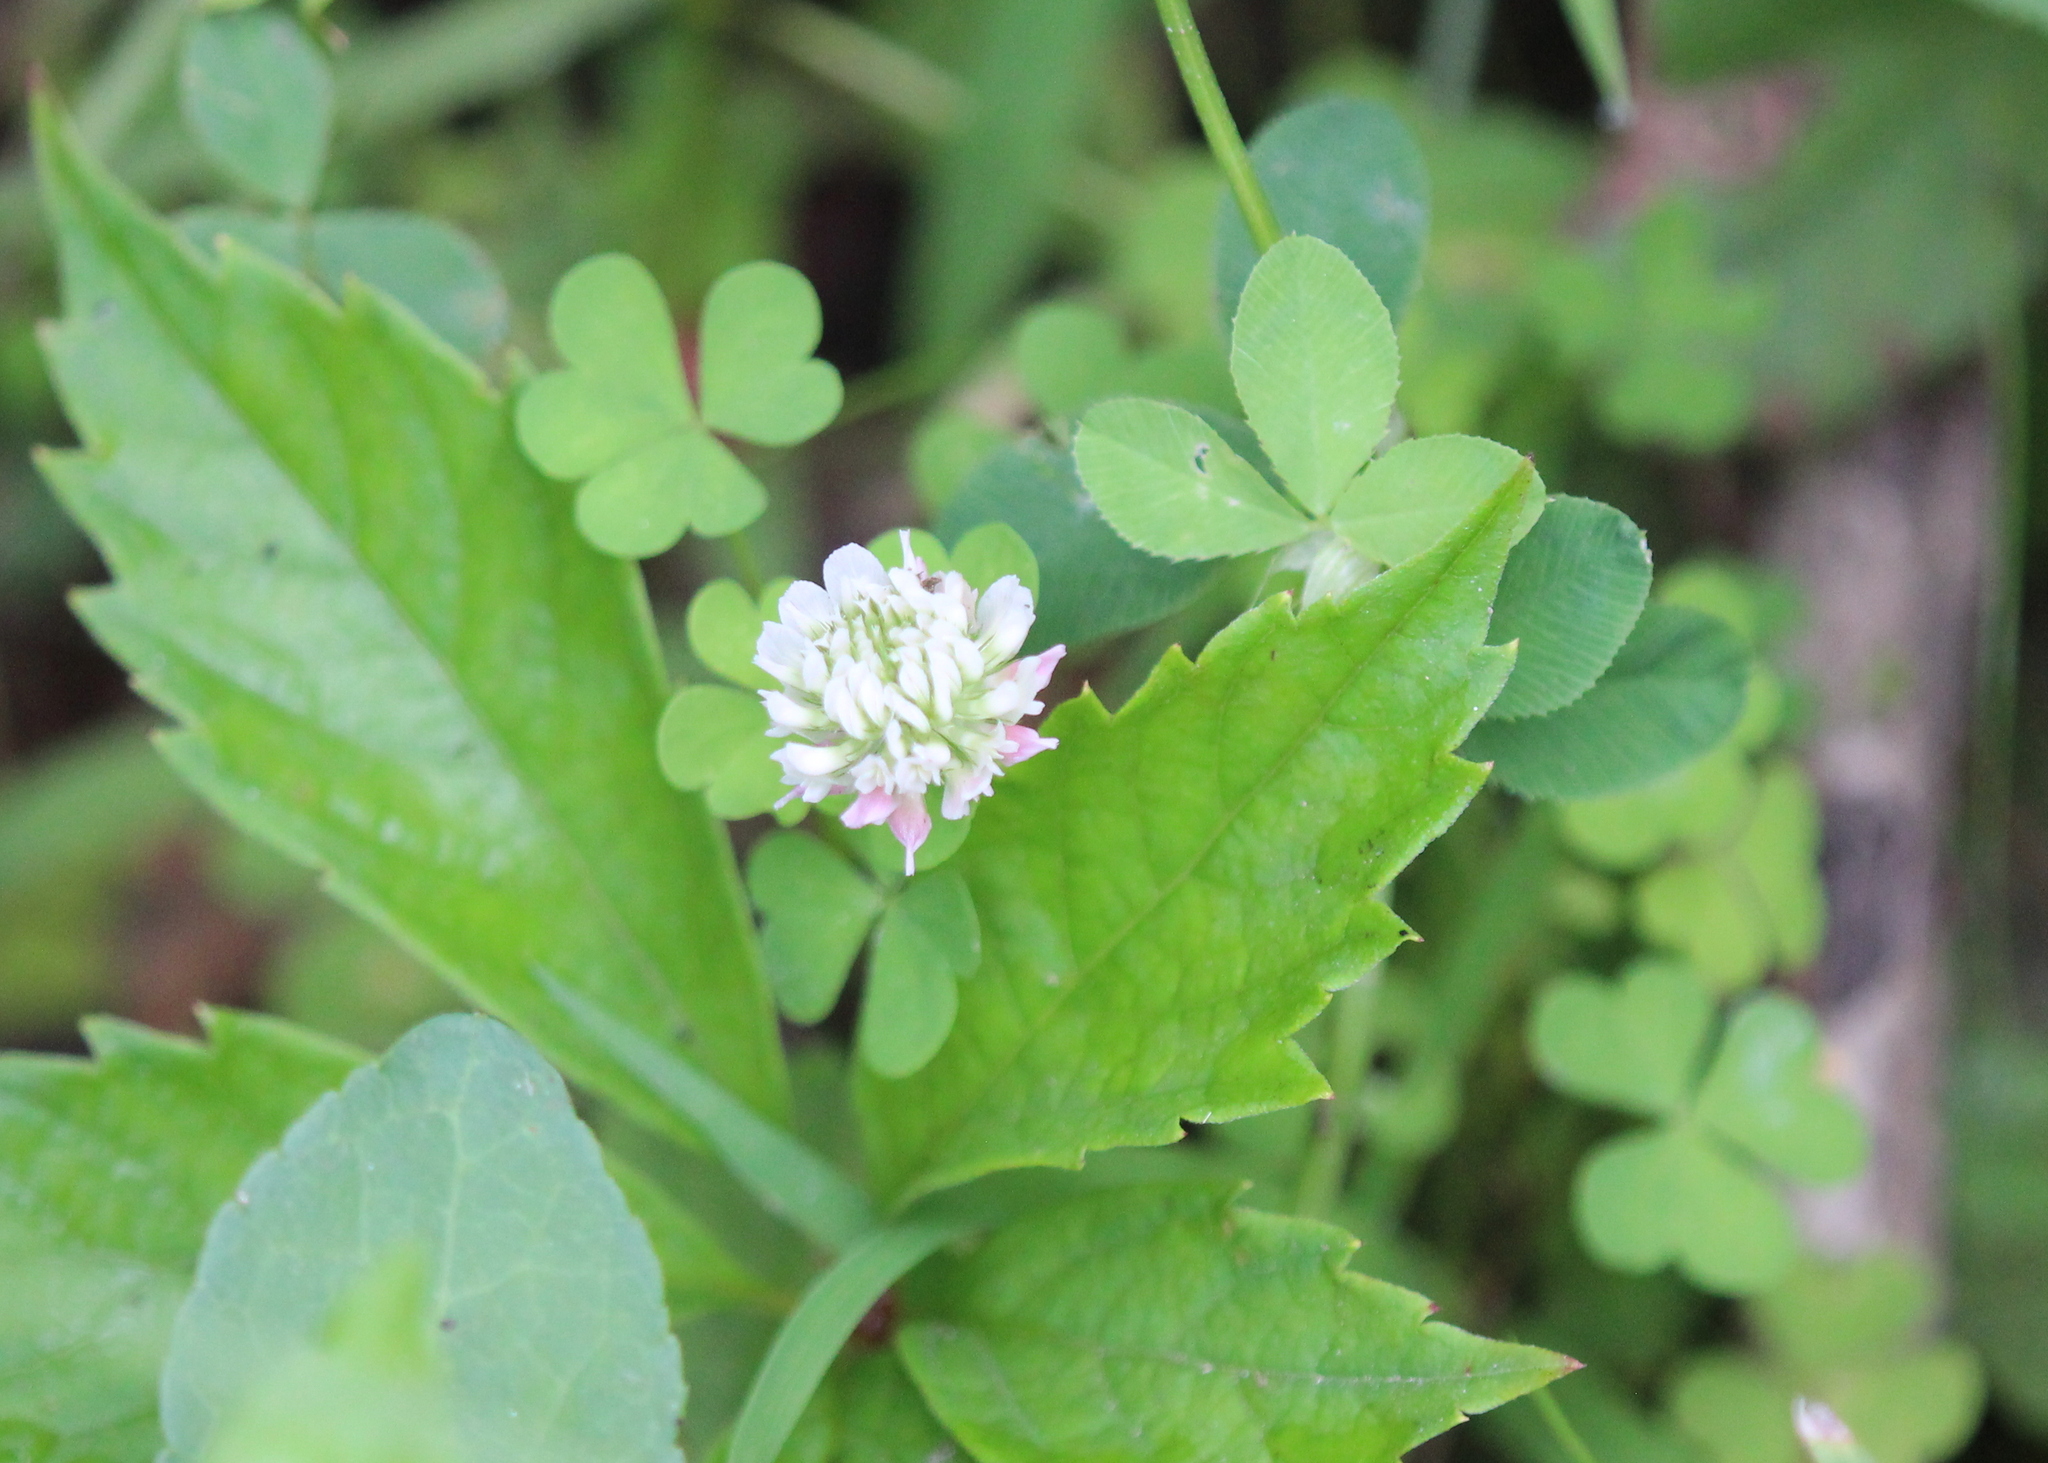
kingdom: Plantae
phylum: Tracheophyta
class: Magnoliopsida
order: Fabales
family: Fabaceae
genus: Trifolium
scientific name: Trifolium repens
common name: White clover
